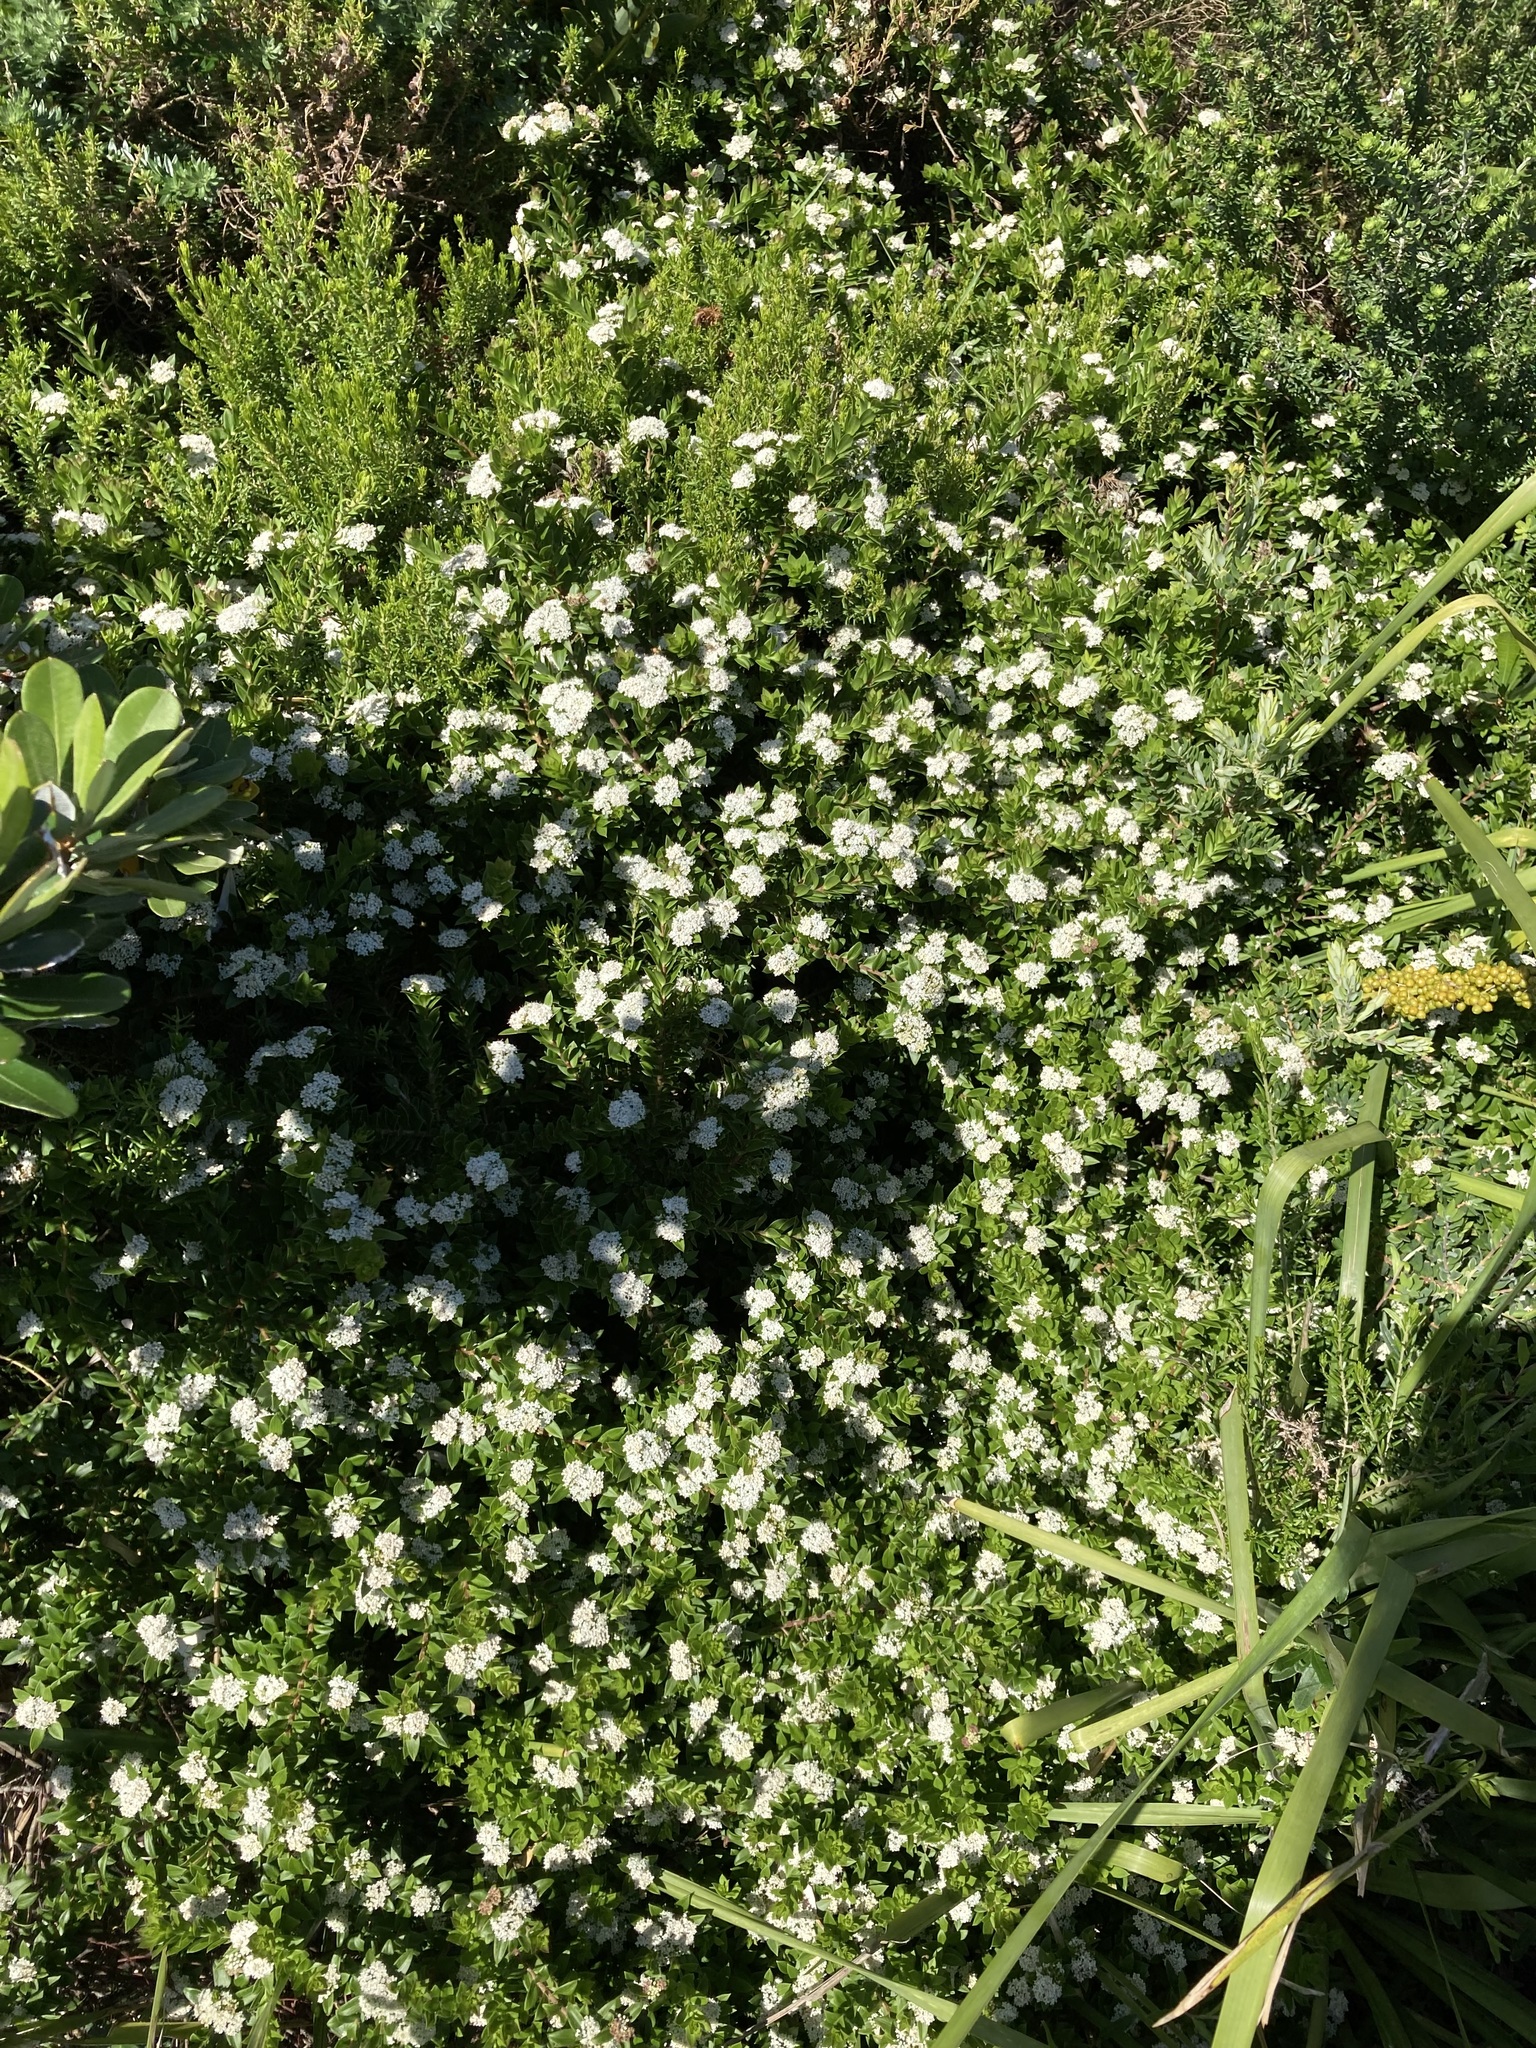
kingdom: Plantae
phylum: Tracheophyta
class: Magnoliopsida
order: Apiales
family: Apiaceae
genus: Platysace
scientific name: Platysace lanceolata
